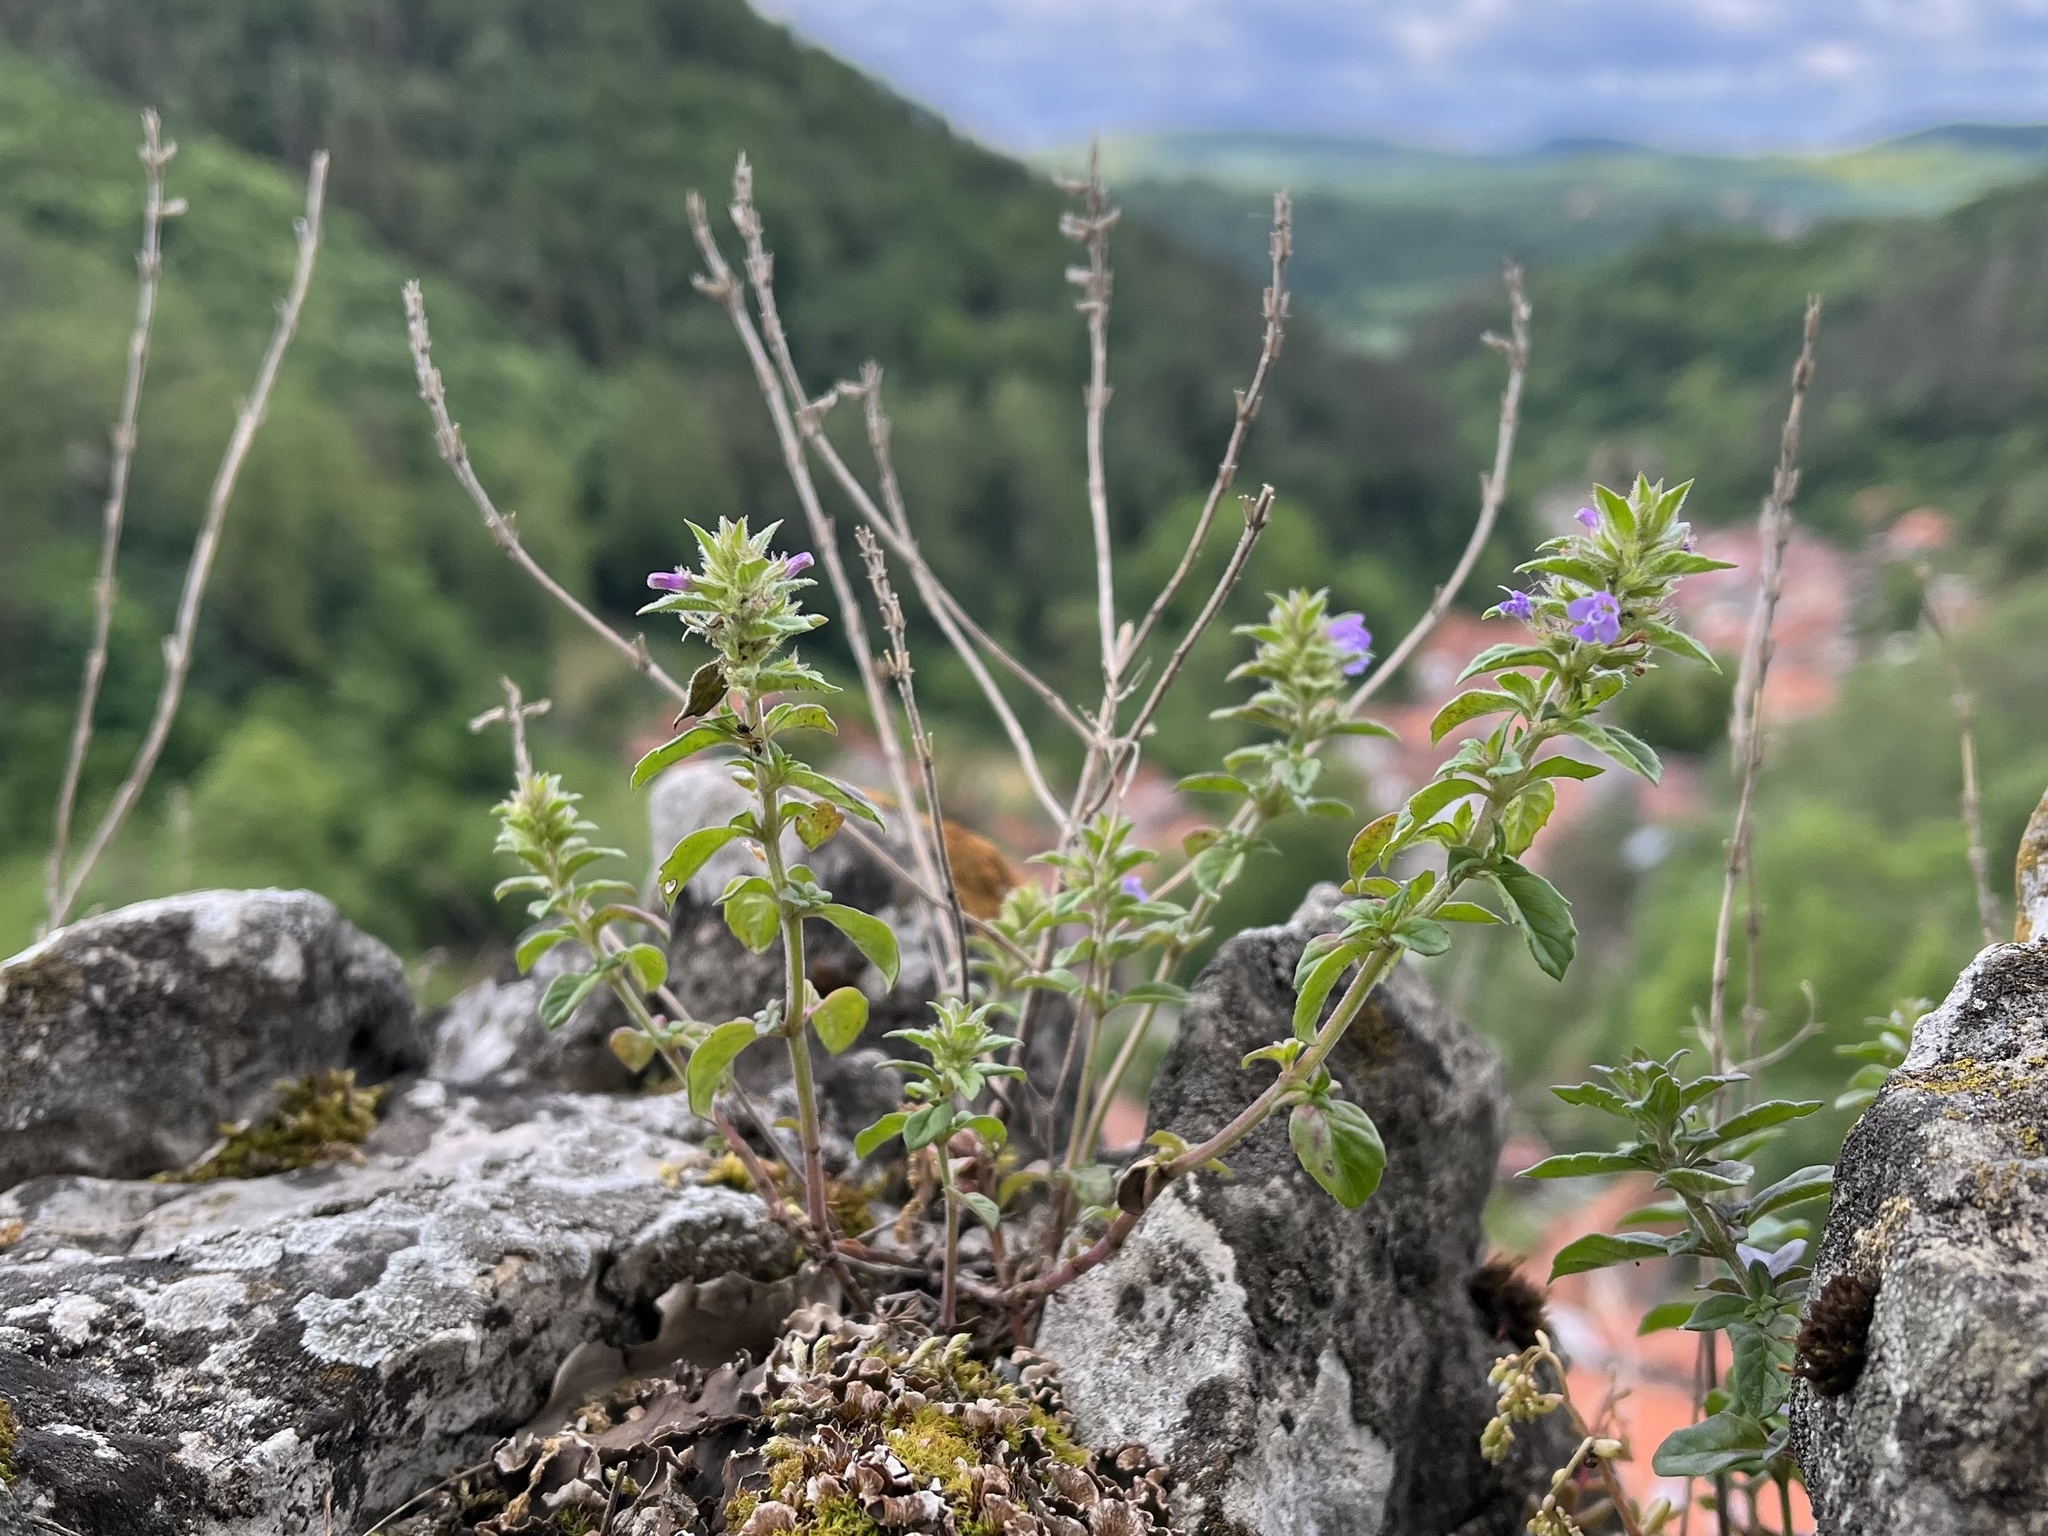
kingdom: Plantae
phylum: Tracheophyta
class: Magnoliopsida
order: Lamiales
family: Lamiaceae
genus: Clinopodium
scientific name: Clinopodium acinos
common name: Basil thyme
